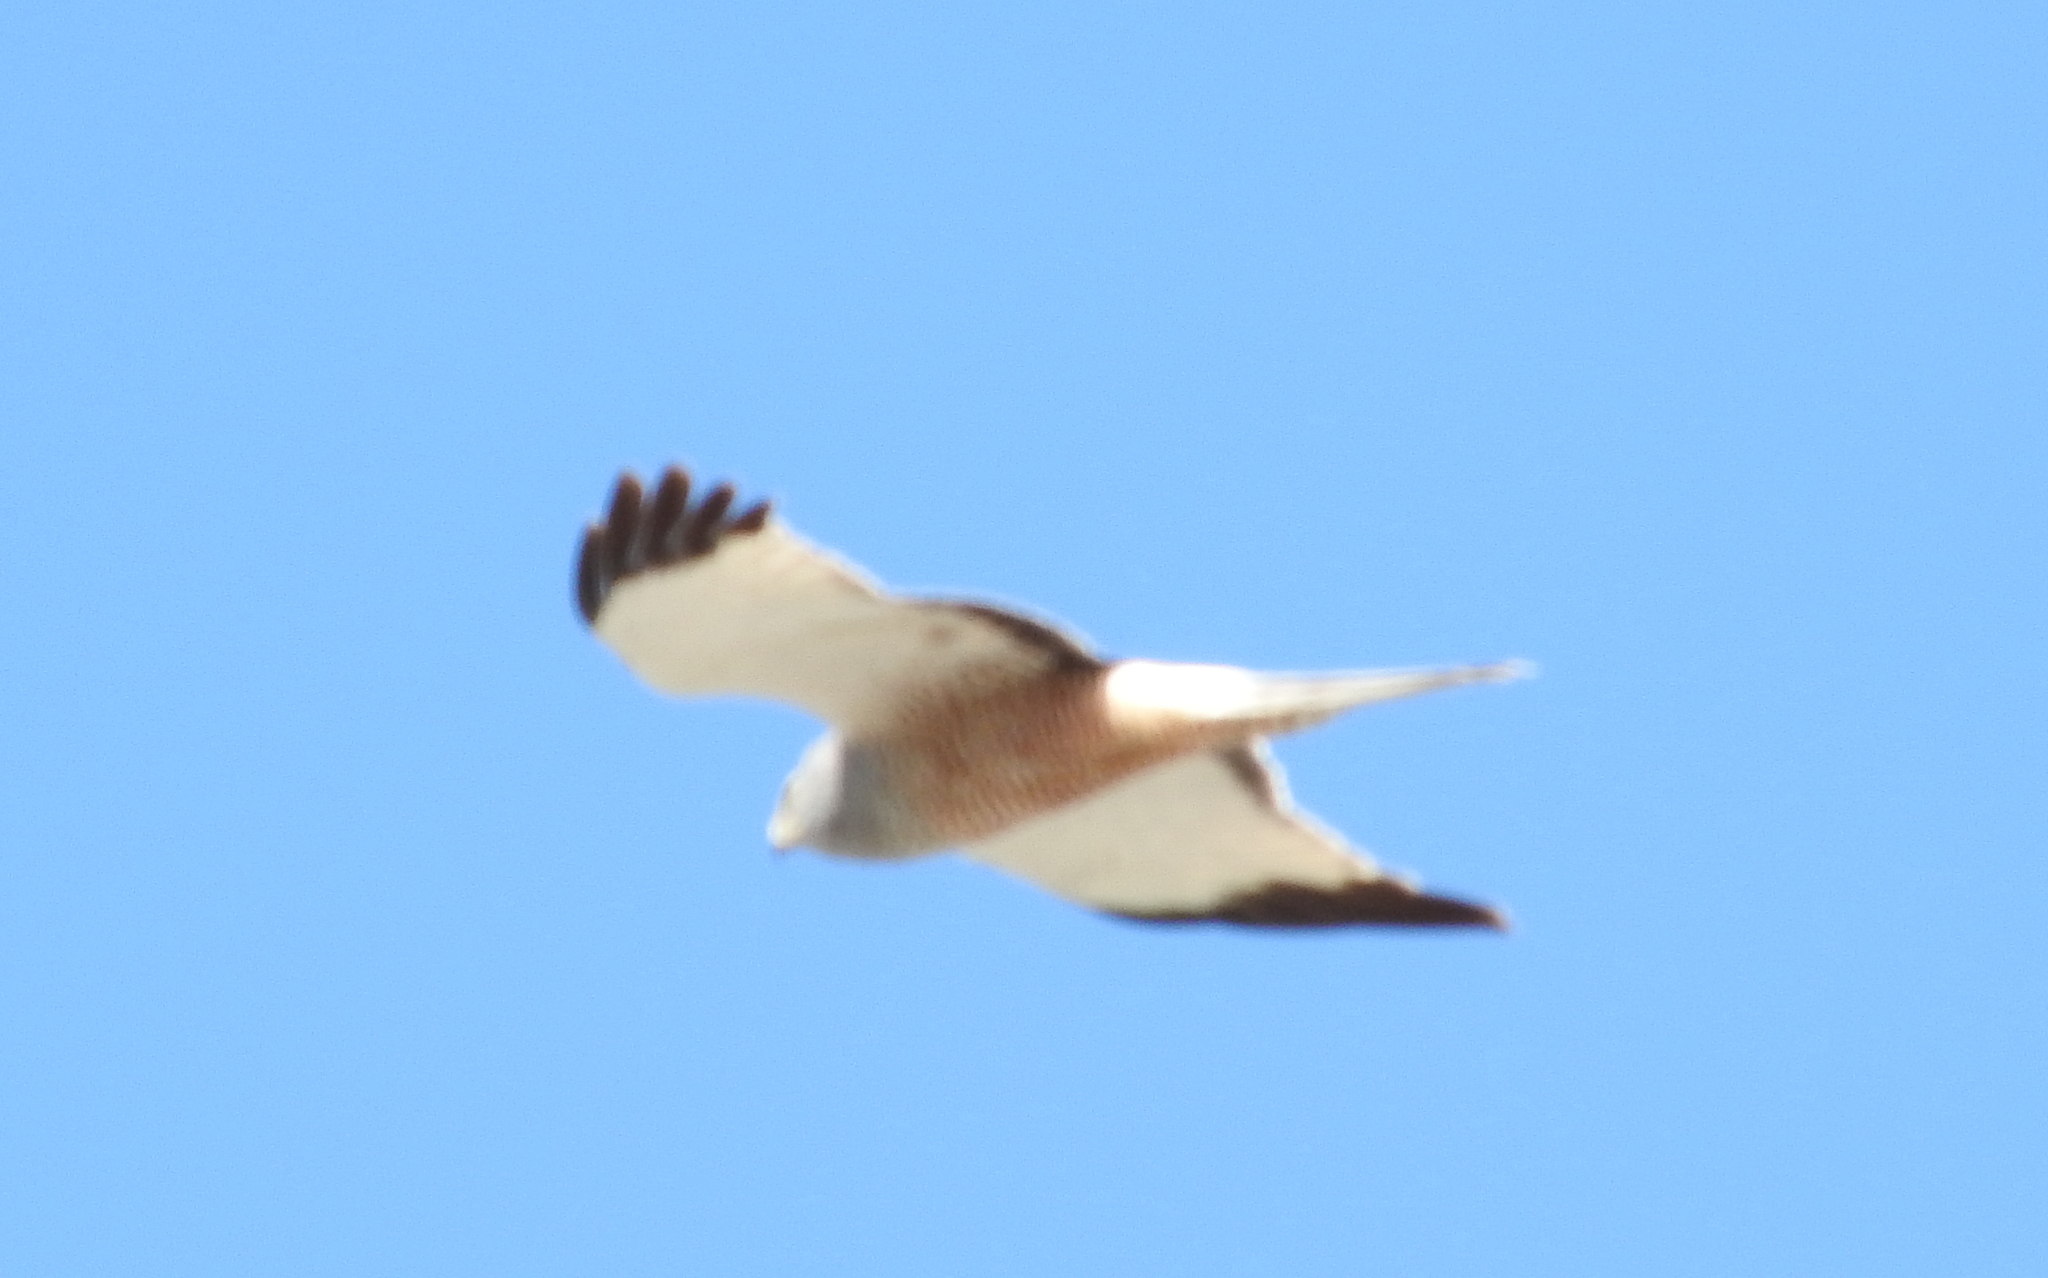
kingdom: Animalia
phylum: Chordata
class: Aves
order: Accipitriformes
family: Accipitridae
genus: Circus
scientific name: Circus cinereus
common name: Cinereous harrier
